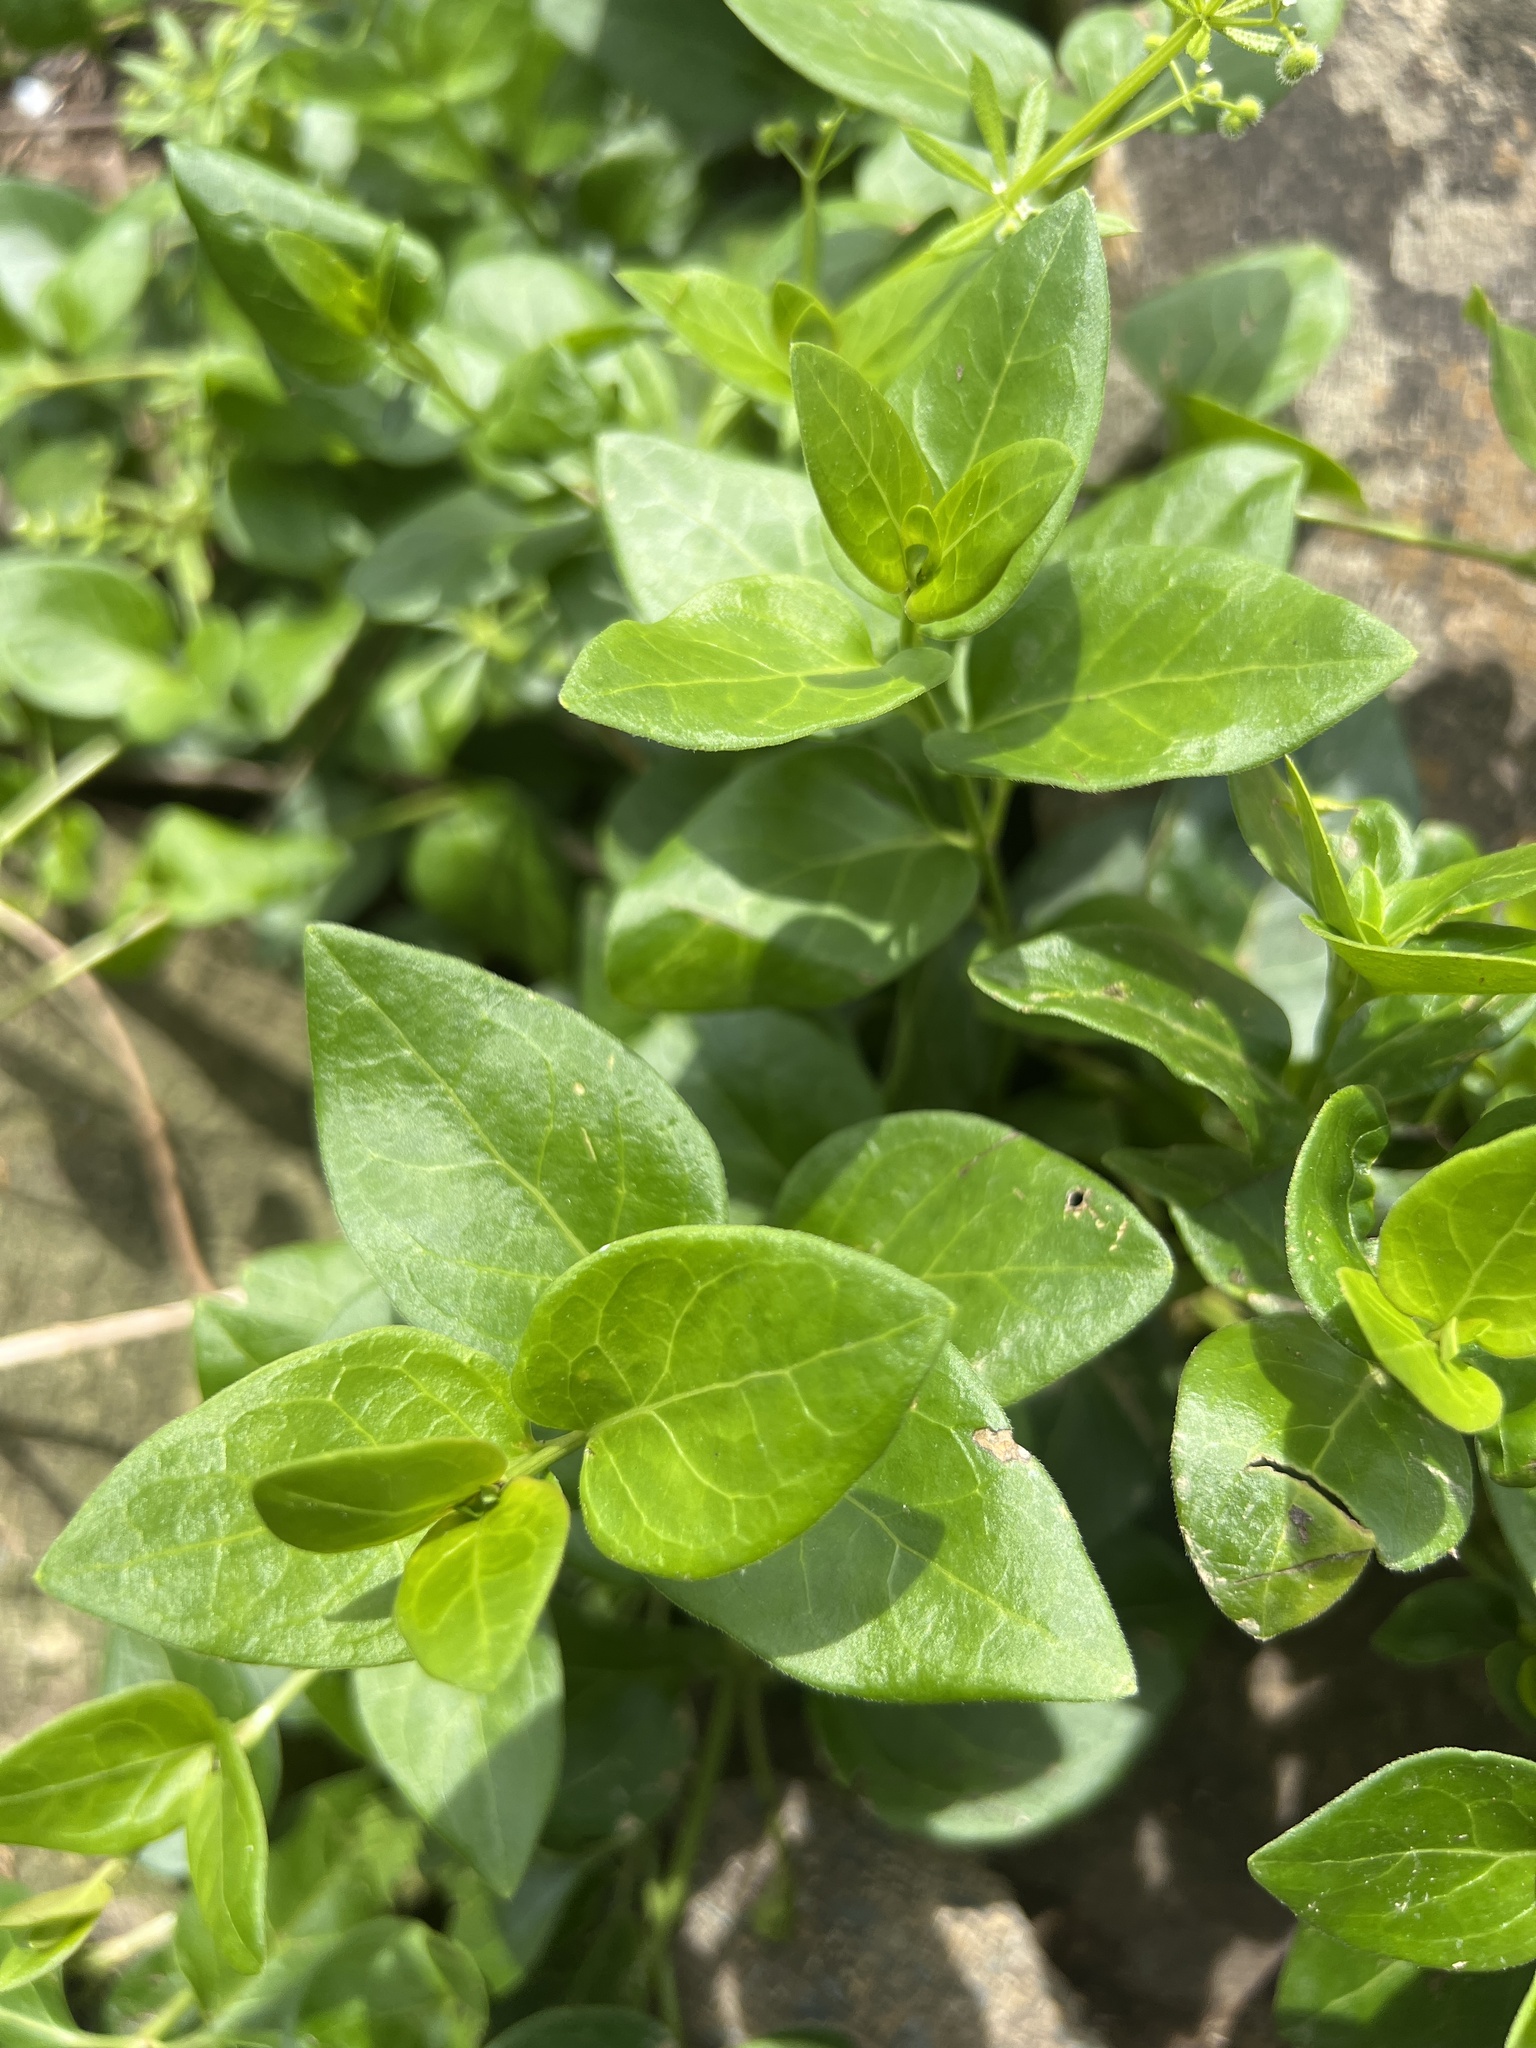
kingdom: Plantae
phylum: Tracheophyta
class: Magnoliopsida
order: Gentianales
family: Apocynaceae
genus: Vinca
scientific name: Vinca major
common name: Greater periwinkle
